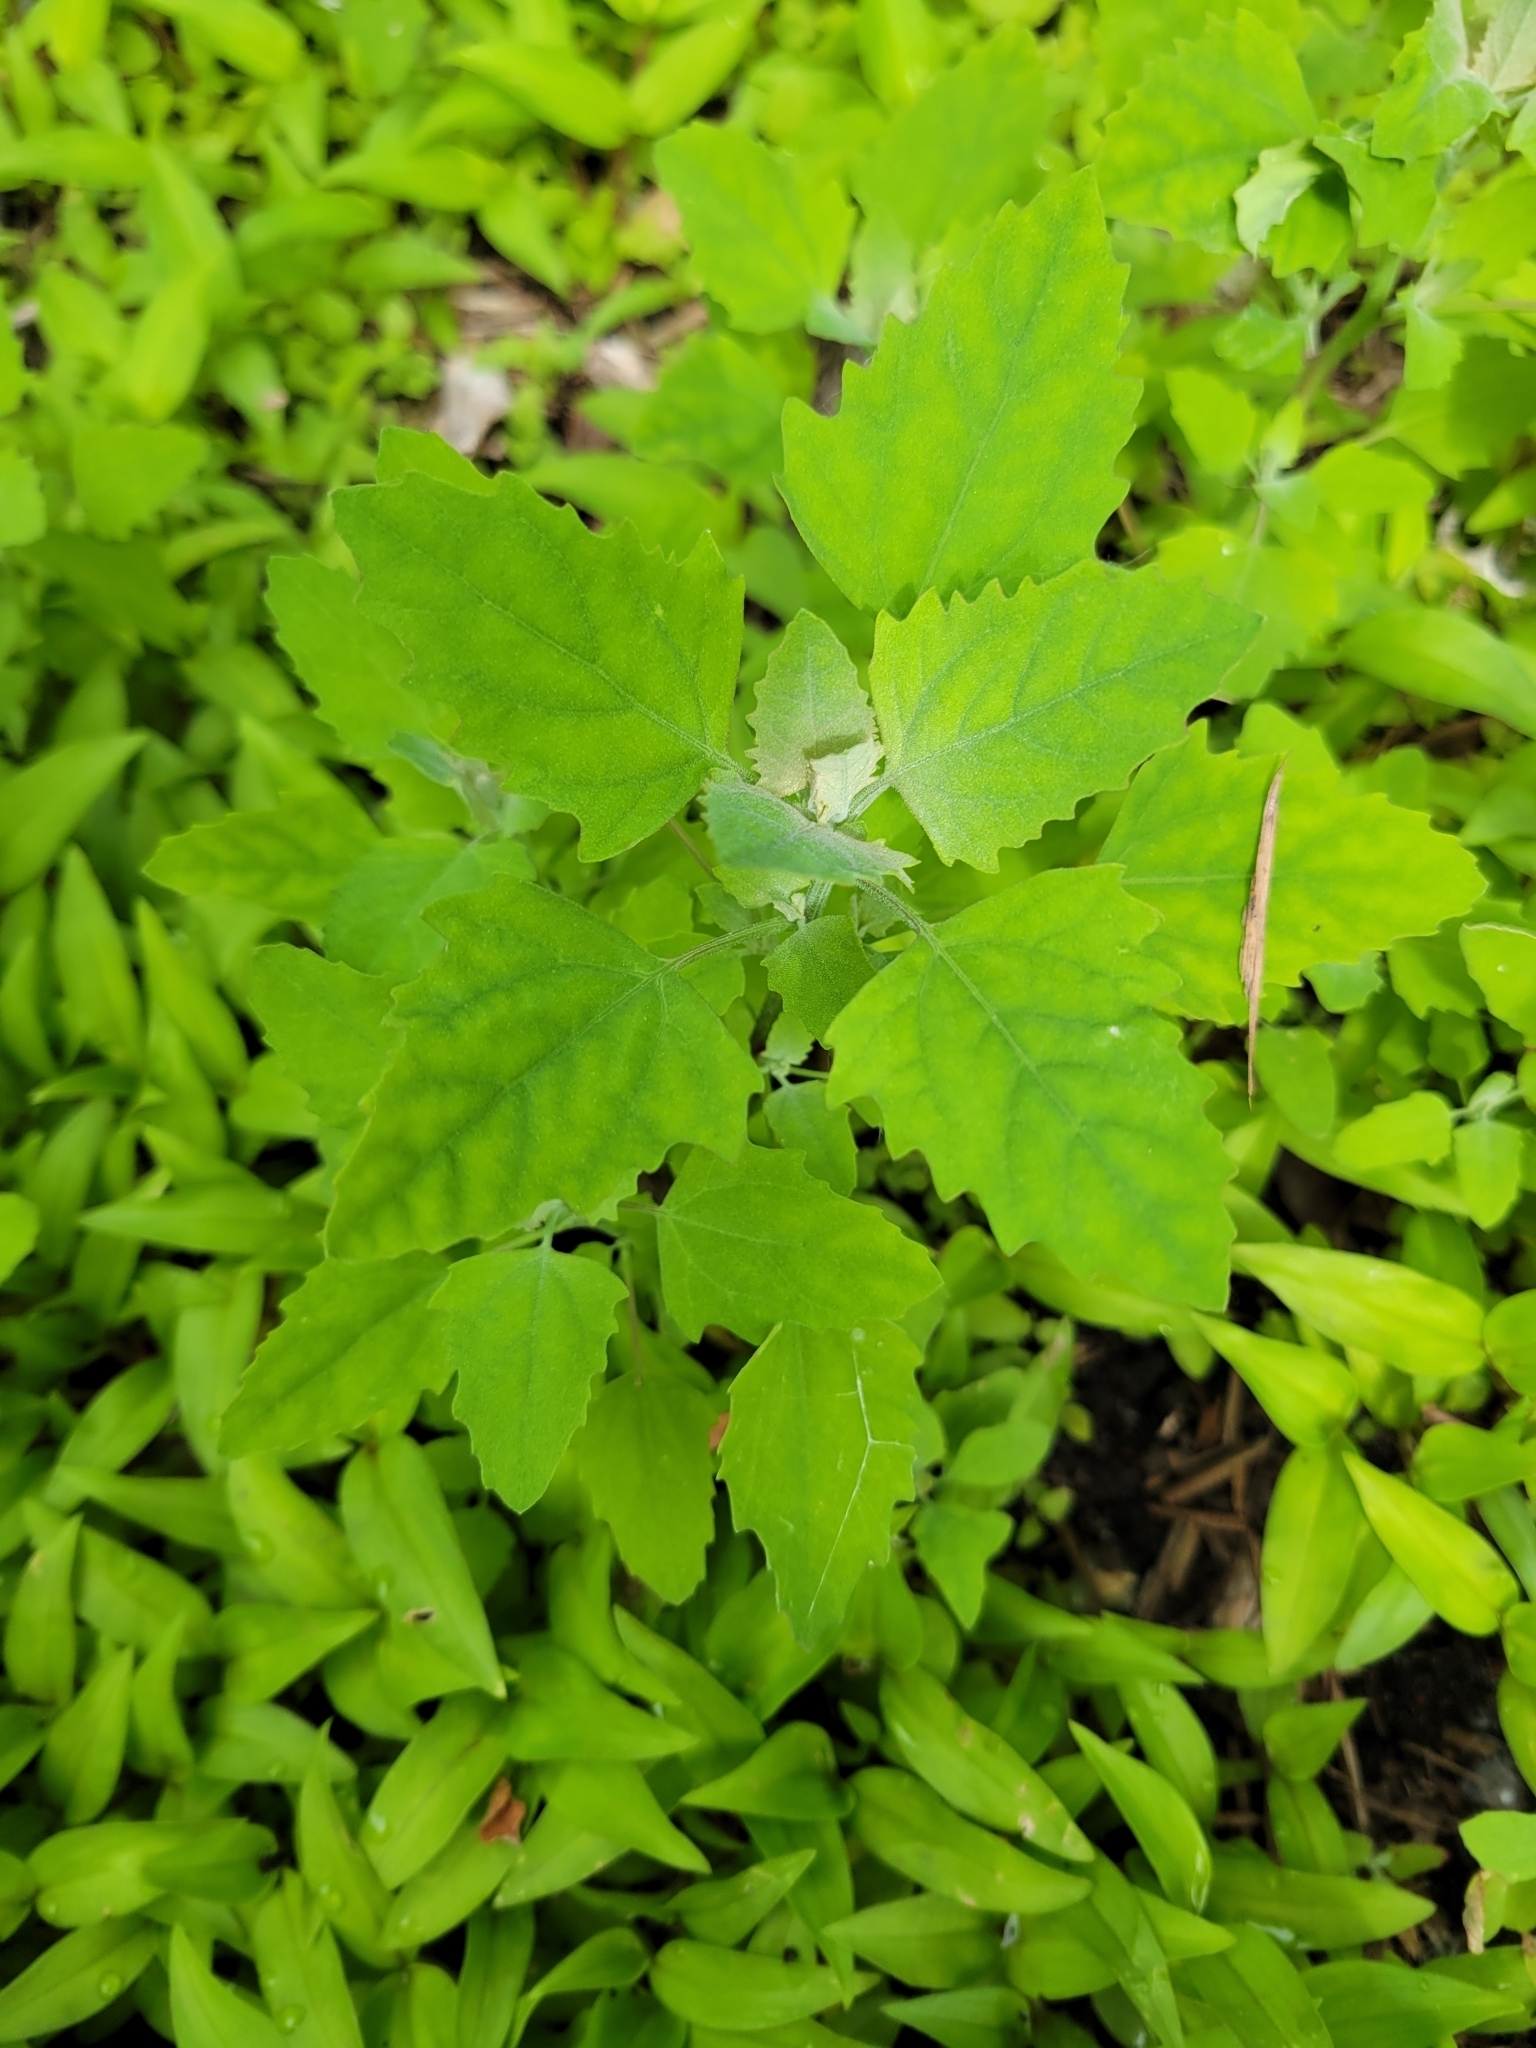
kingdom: Plantae
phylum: Tracheophyta
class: Magnoliopsida
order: Caryophyllales
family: Amaranthaceae
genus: Chenopodium
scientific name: Chenopodium album
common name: Fat-hen
